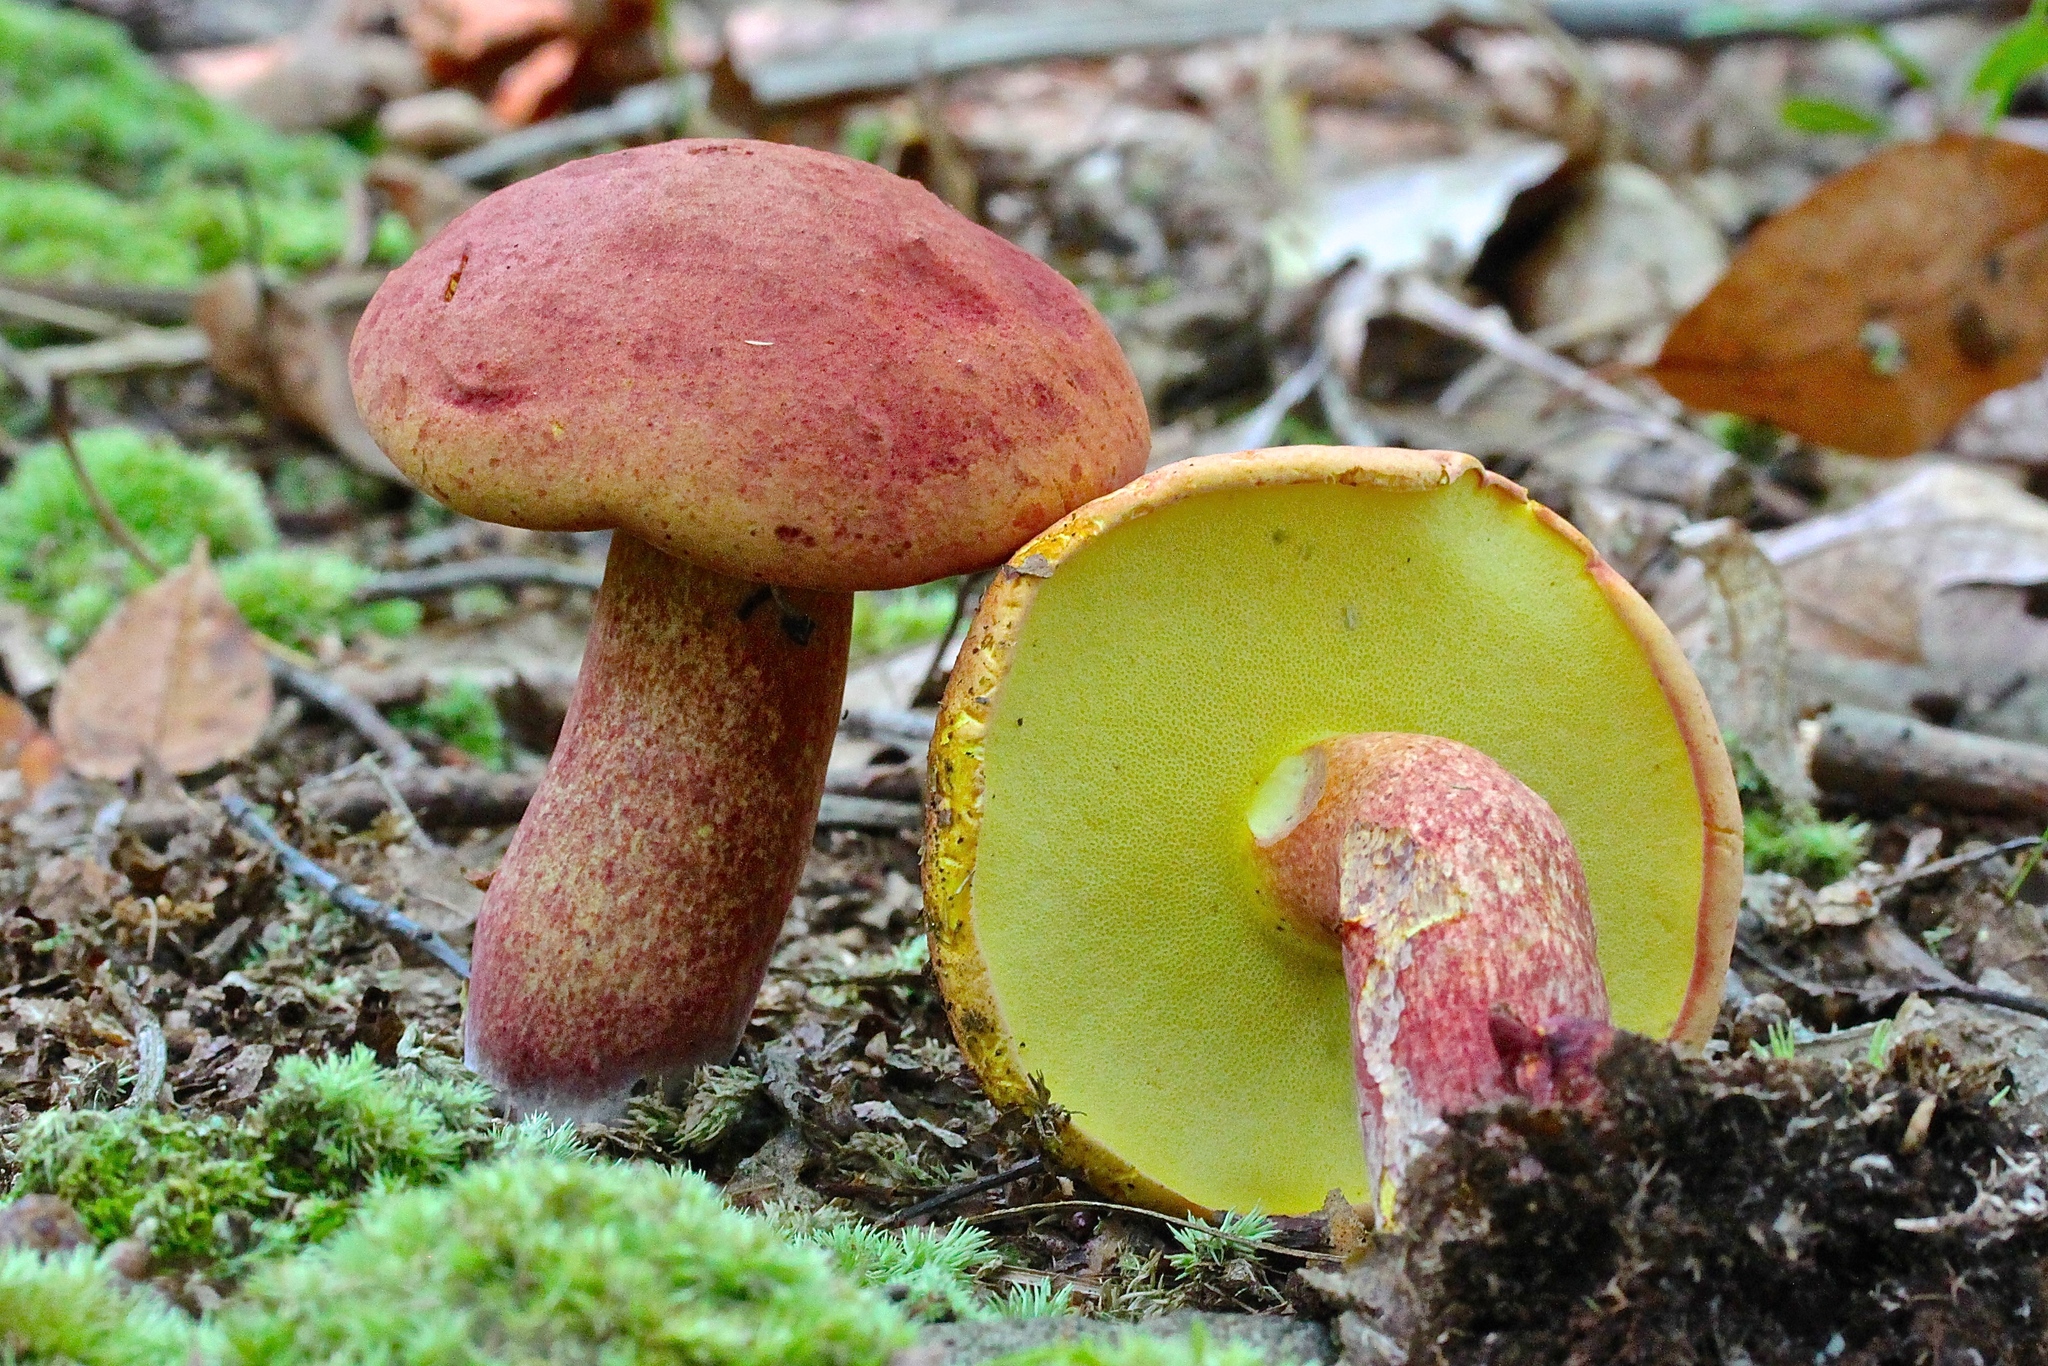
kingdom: Fungi
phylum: Basidiomycota
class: Agaricomycetes
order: Boletales
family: Boletaceae
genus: Baorangia
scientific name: Baorangia bicolor
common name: Two-colored bolete
